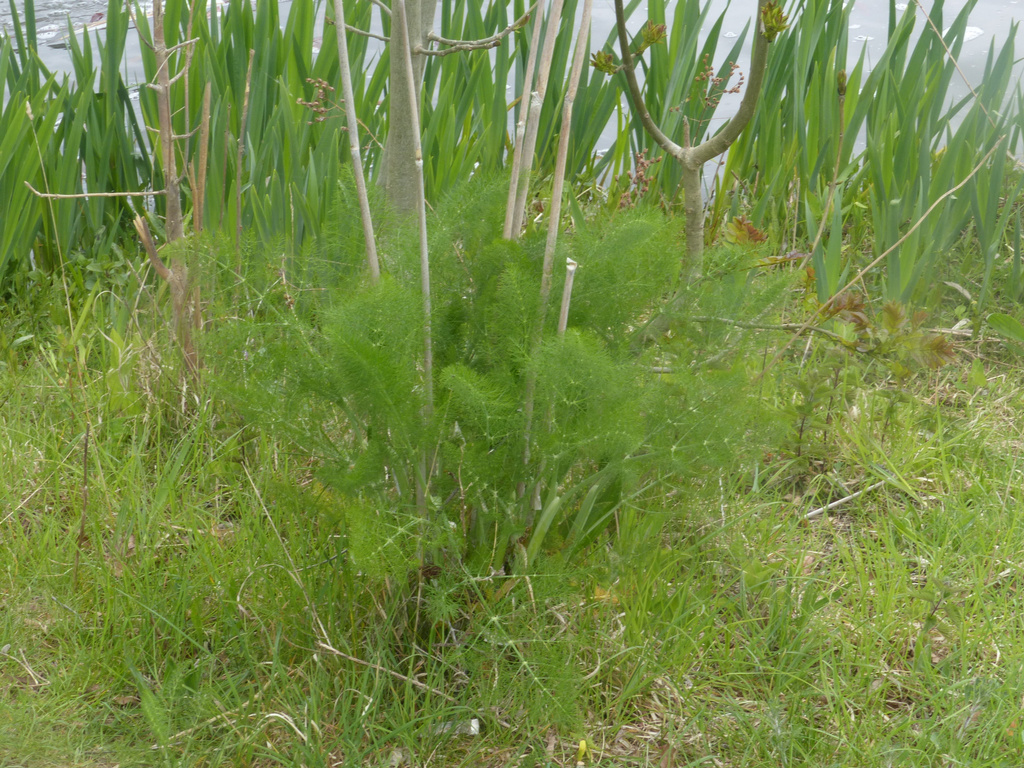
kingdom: Plantae
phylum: Tracheophyta
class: Magnoliopsida
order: Apiales
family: Apiaceae
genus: Foeniculum
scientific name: Foeniculum vulgare
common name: Fennel
